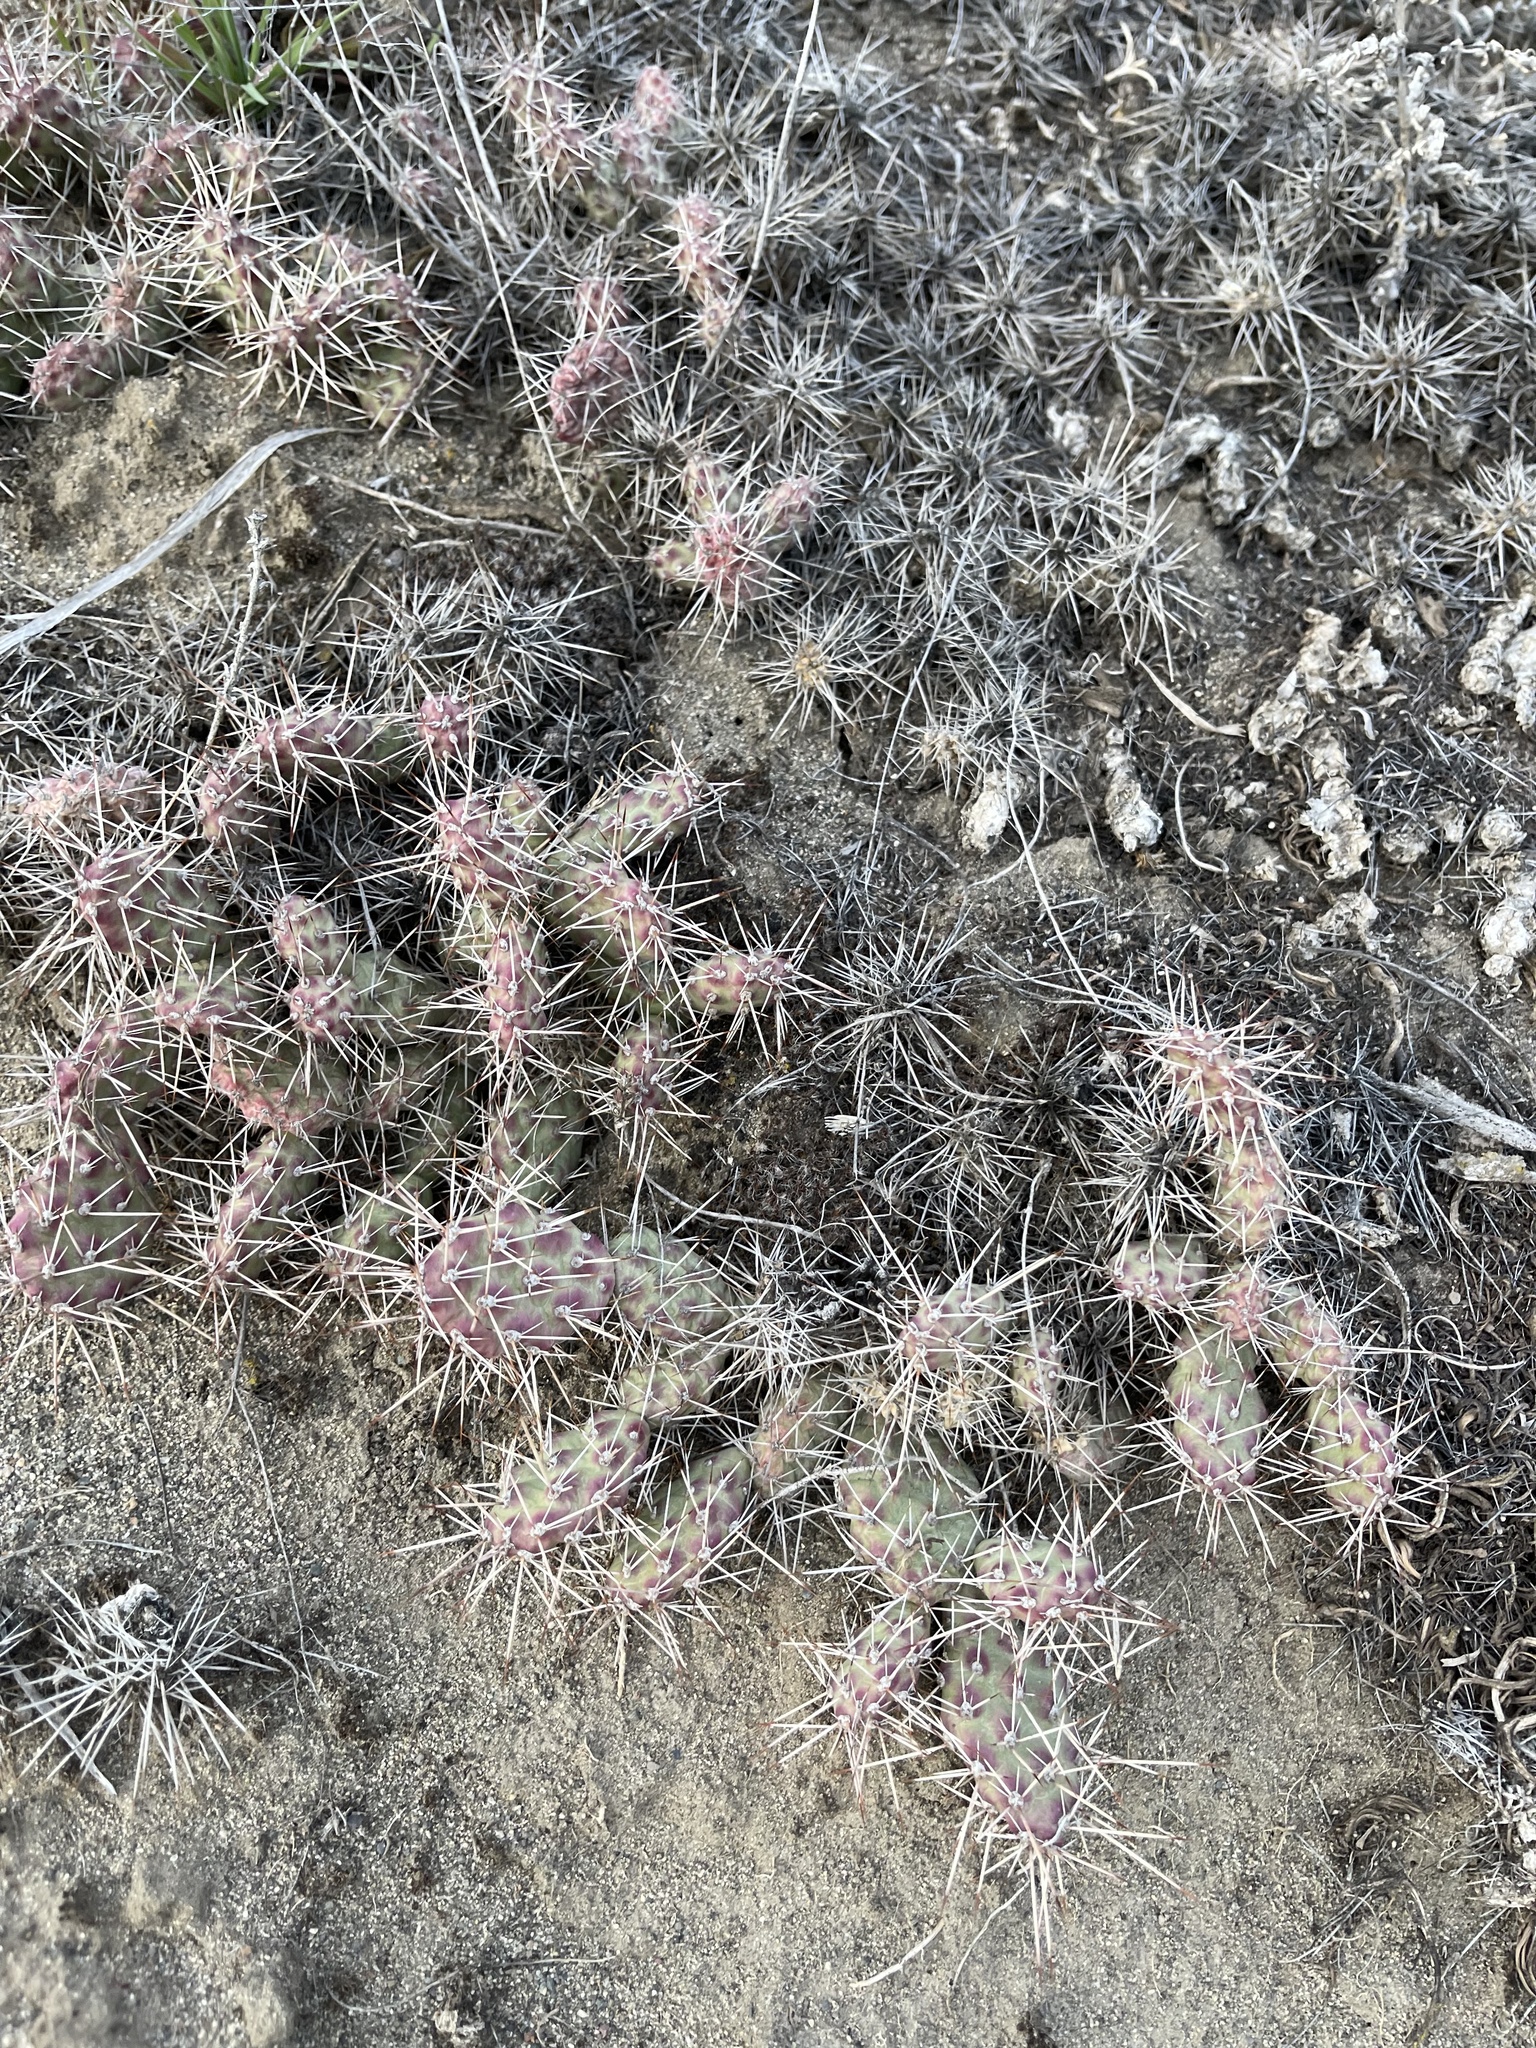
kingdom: Plantae
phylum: Tracheophyta
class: Magnoliopsida
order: Caryophyllales
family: Cactaceae
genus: Opuntia
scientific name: Opuntia columbiana
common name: Columbia prickly-pear
